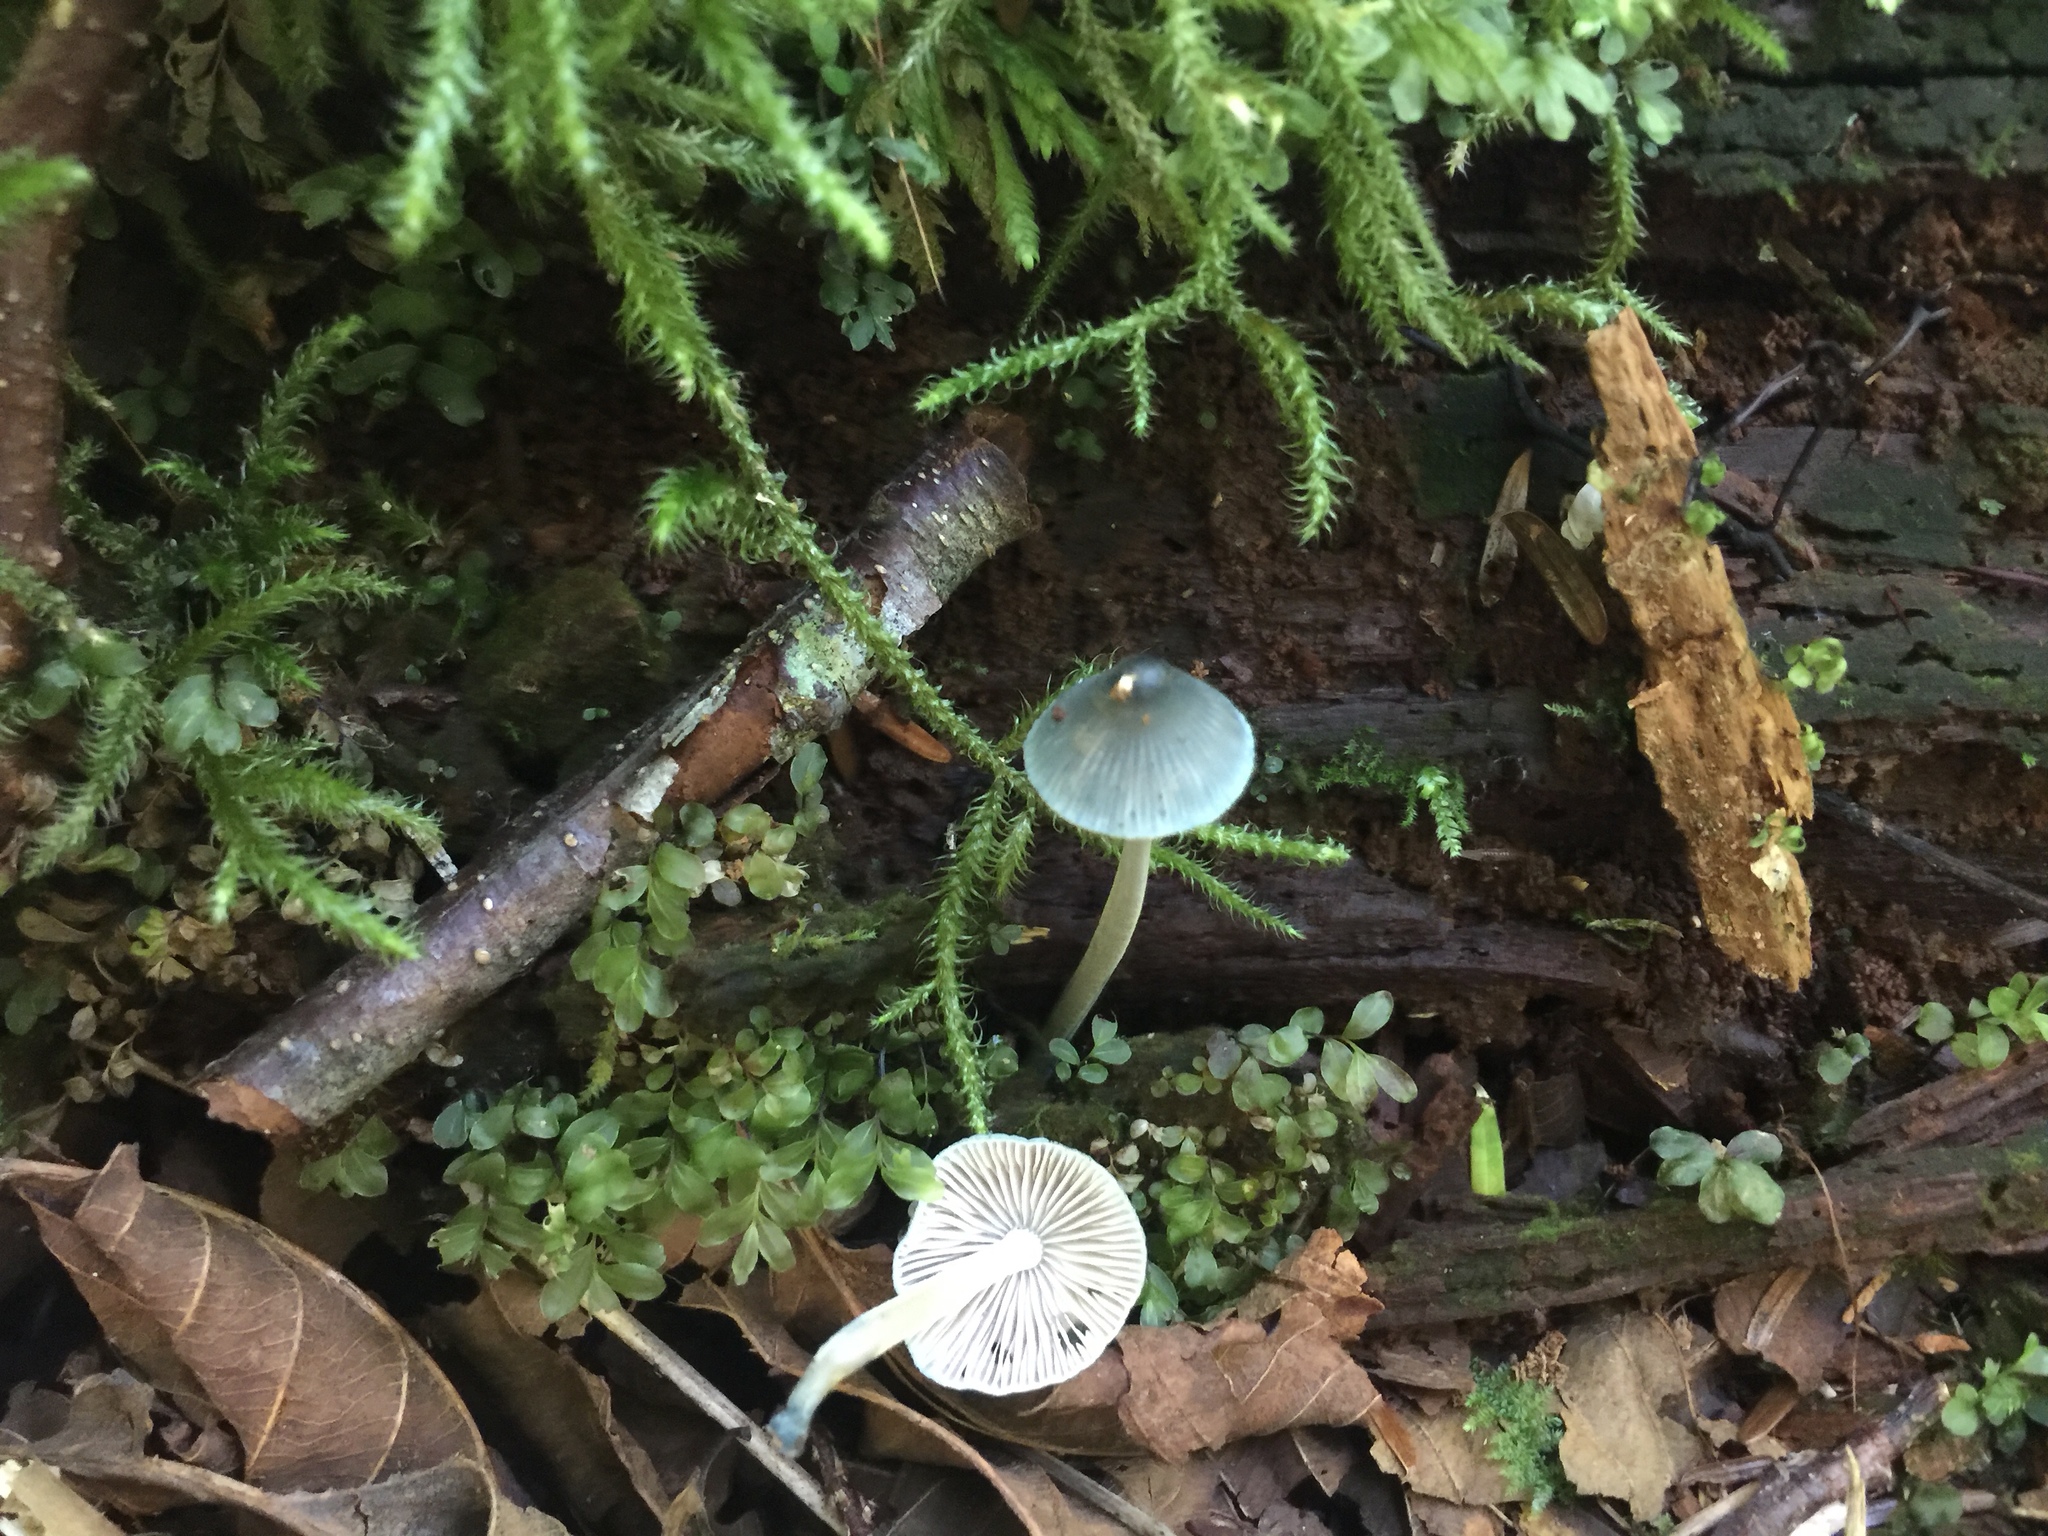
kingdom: Fungi
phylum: Basidiomycota
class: Agaricomycetes
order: Agaricales
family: Mycenaceae
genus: Mycena
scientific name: Mycena amicta
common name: Coldfoot bonnet
